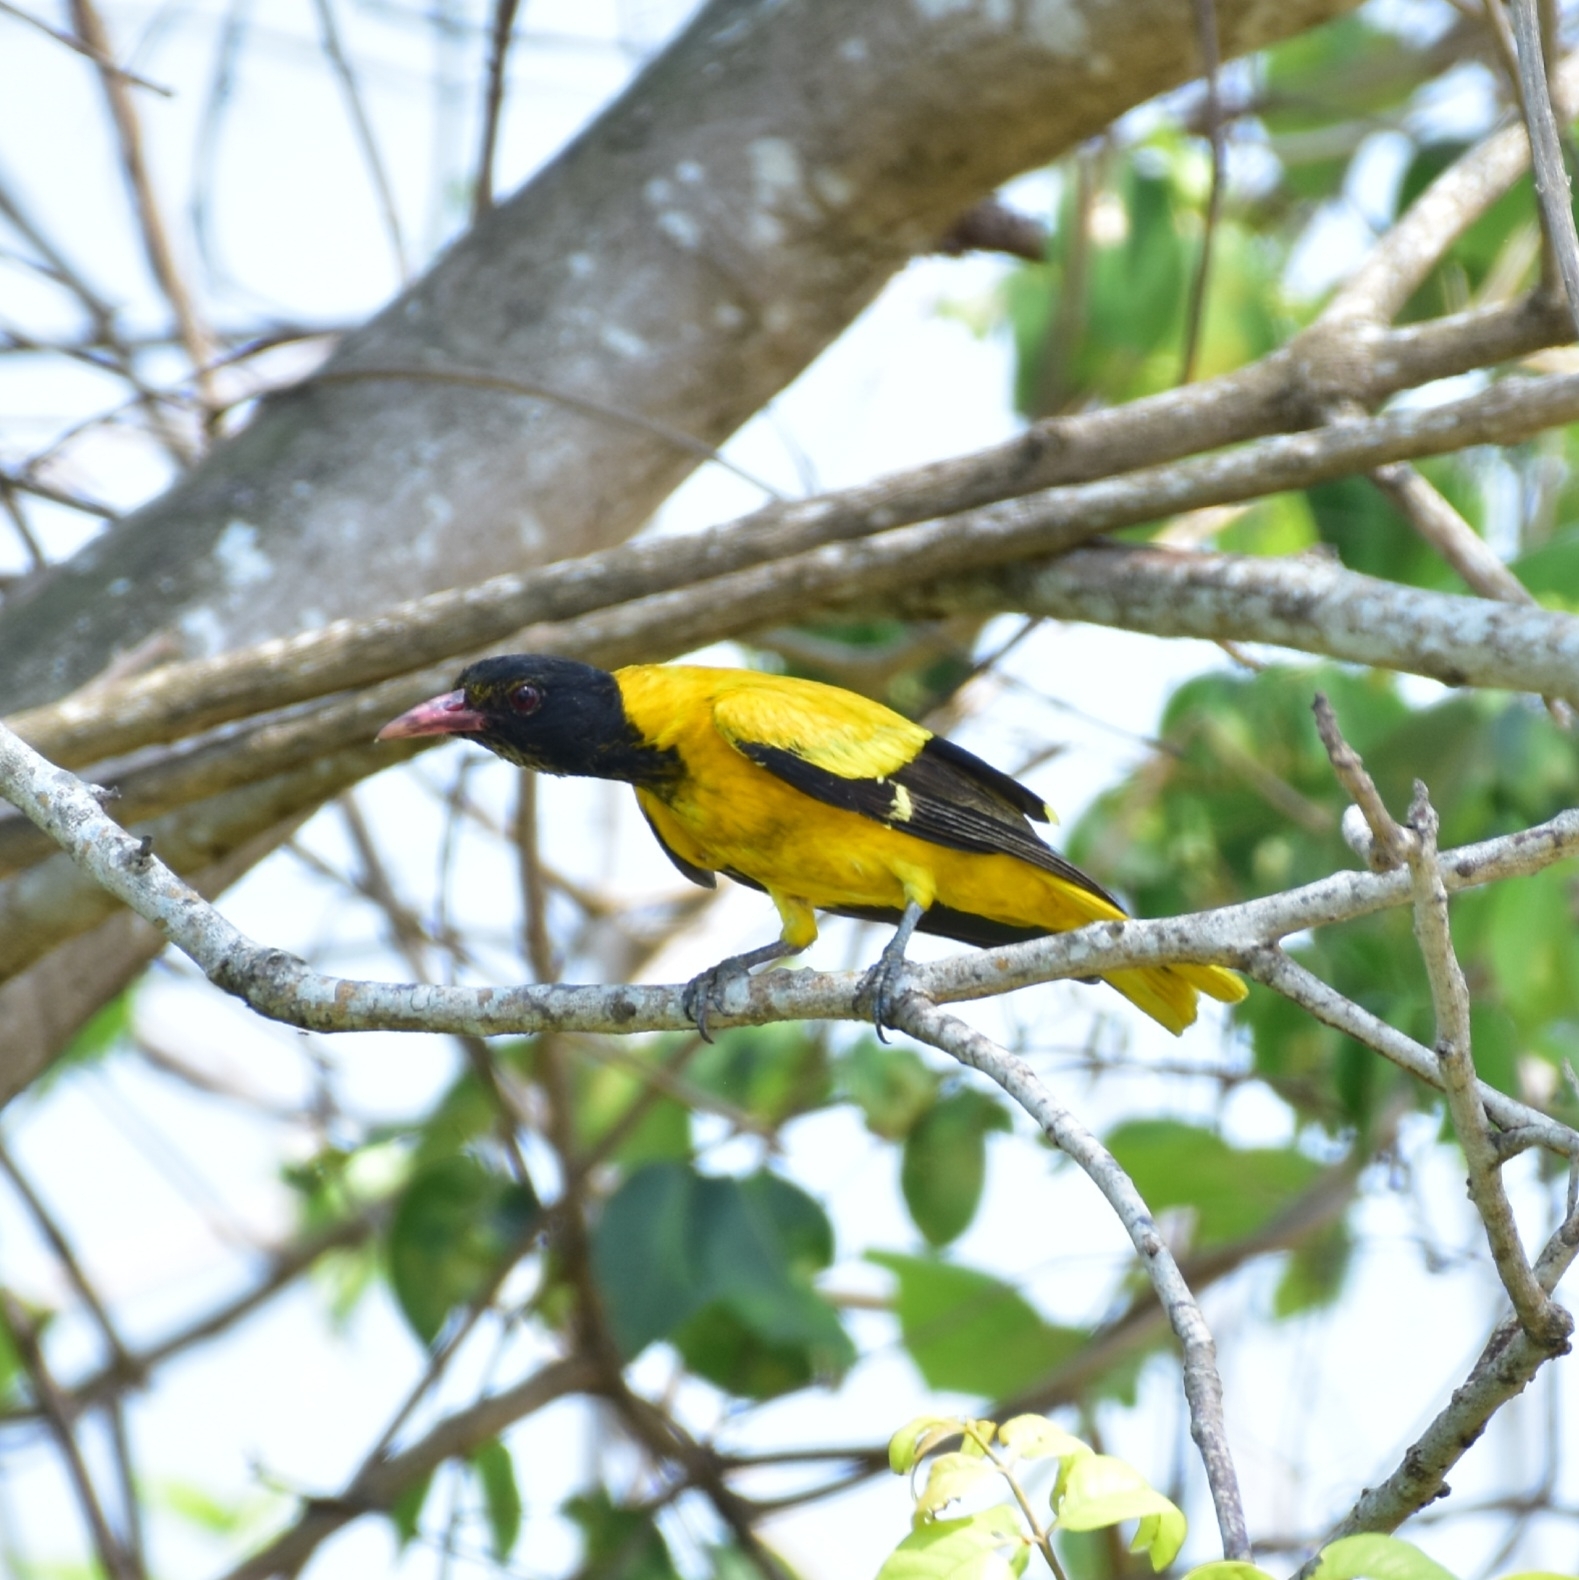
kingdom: Animalia
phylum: Chordata
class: Aves
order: Passeriformes
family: Oriolidae
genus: Oriolus
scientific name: Oriolus xanthornus
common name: Black-hooded oriole
